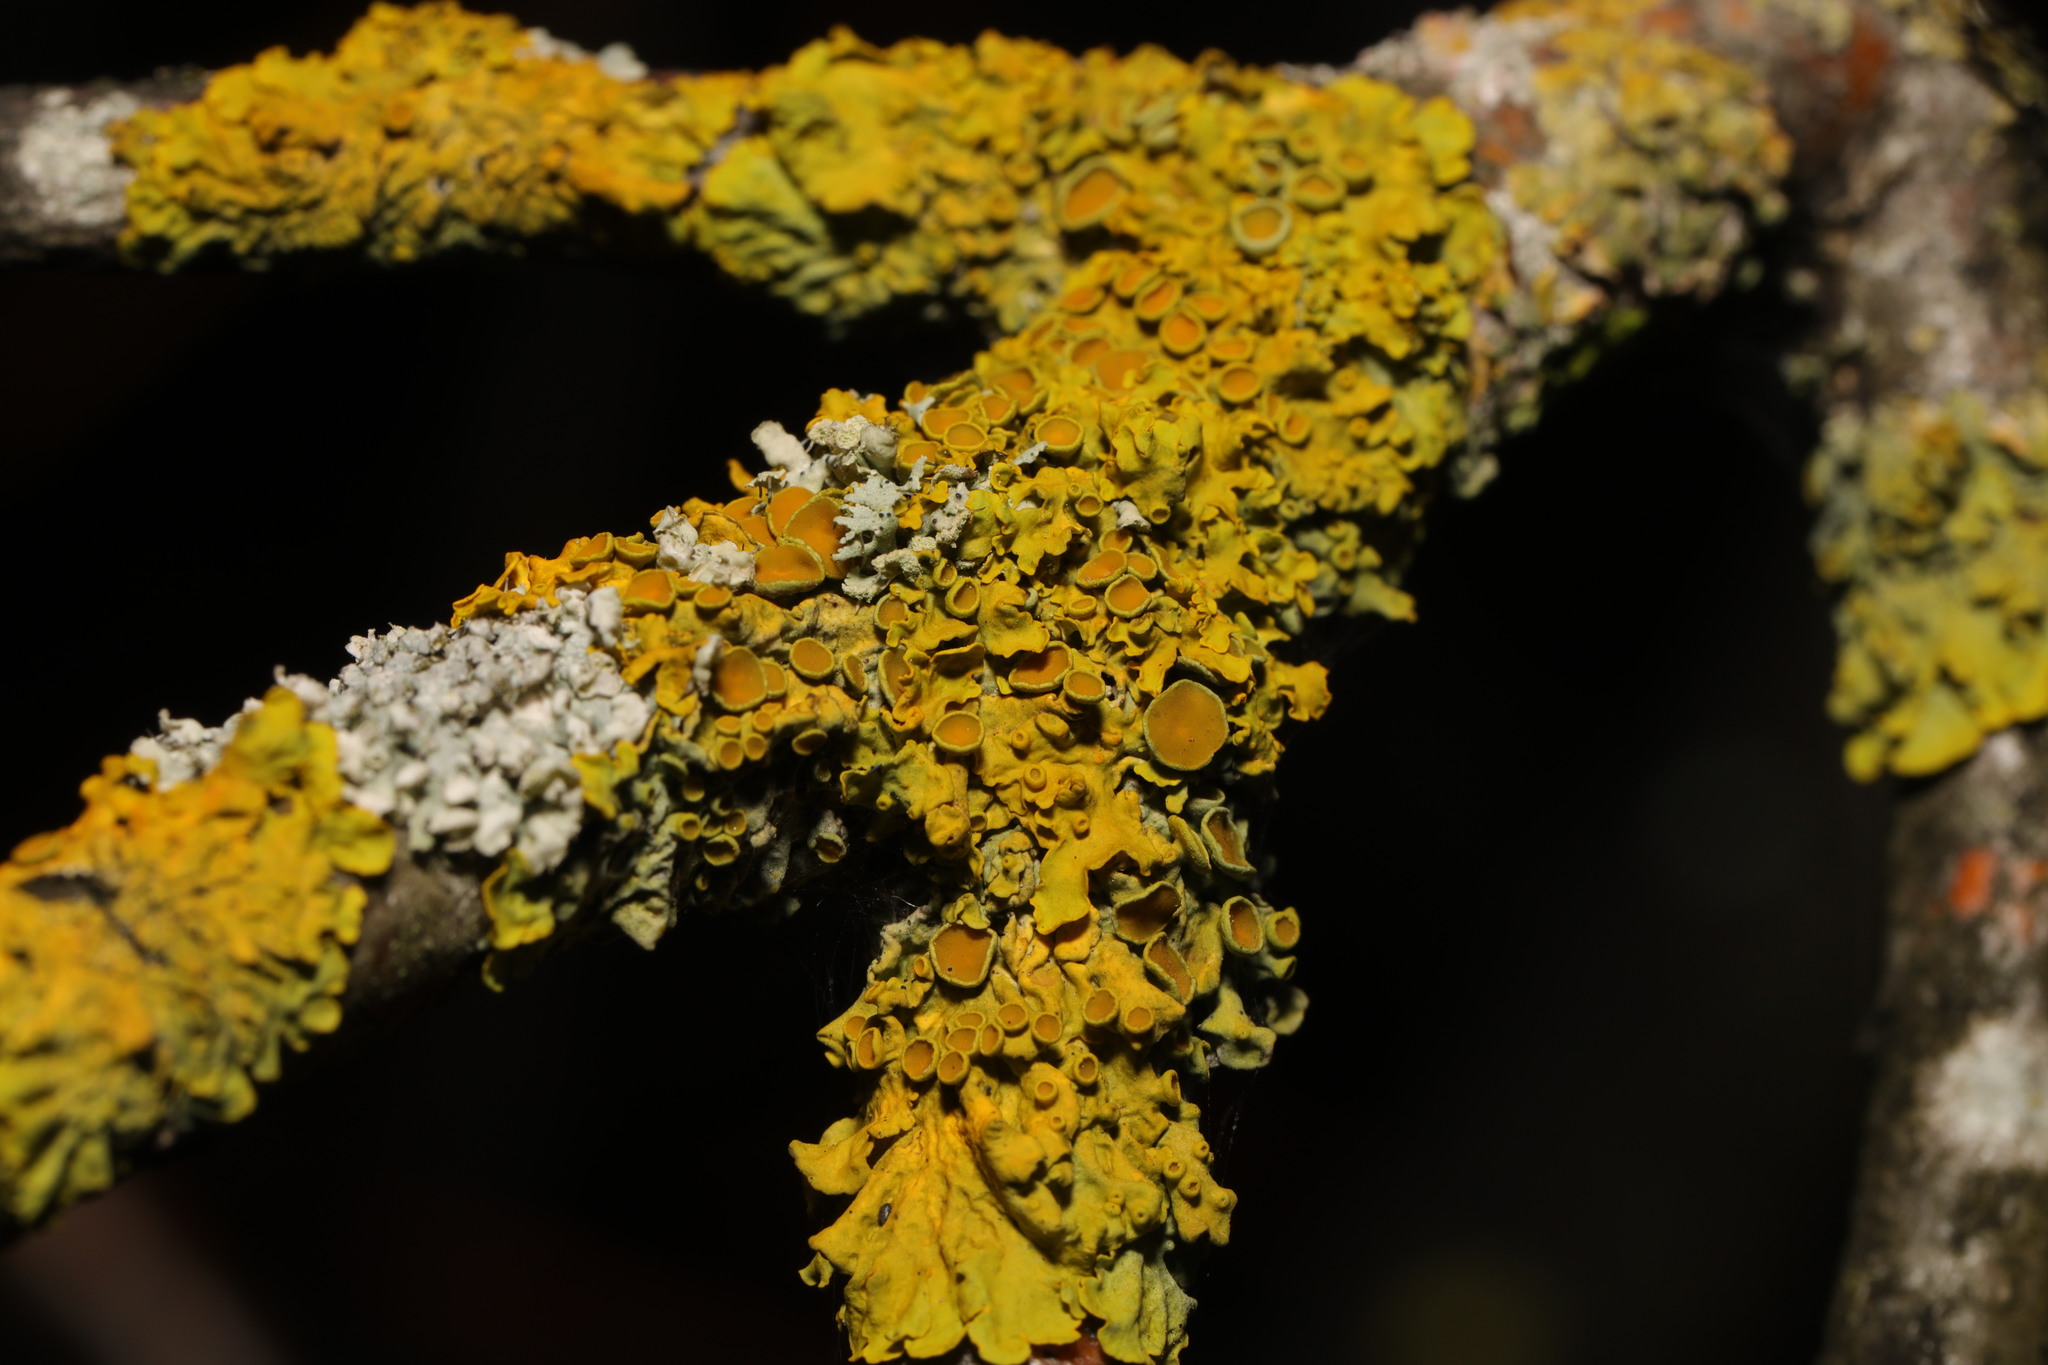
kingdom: Fungi
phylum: Ascomycota
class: Lecanoromycetes
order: Teloschistales
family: Teloschistaceae
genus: Xanthoria
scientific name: Xanthoria parietina
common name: Common orange lichen
